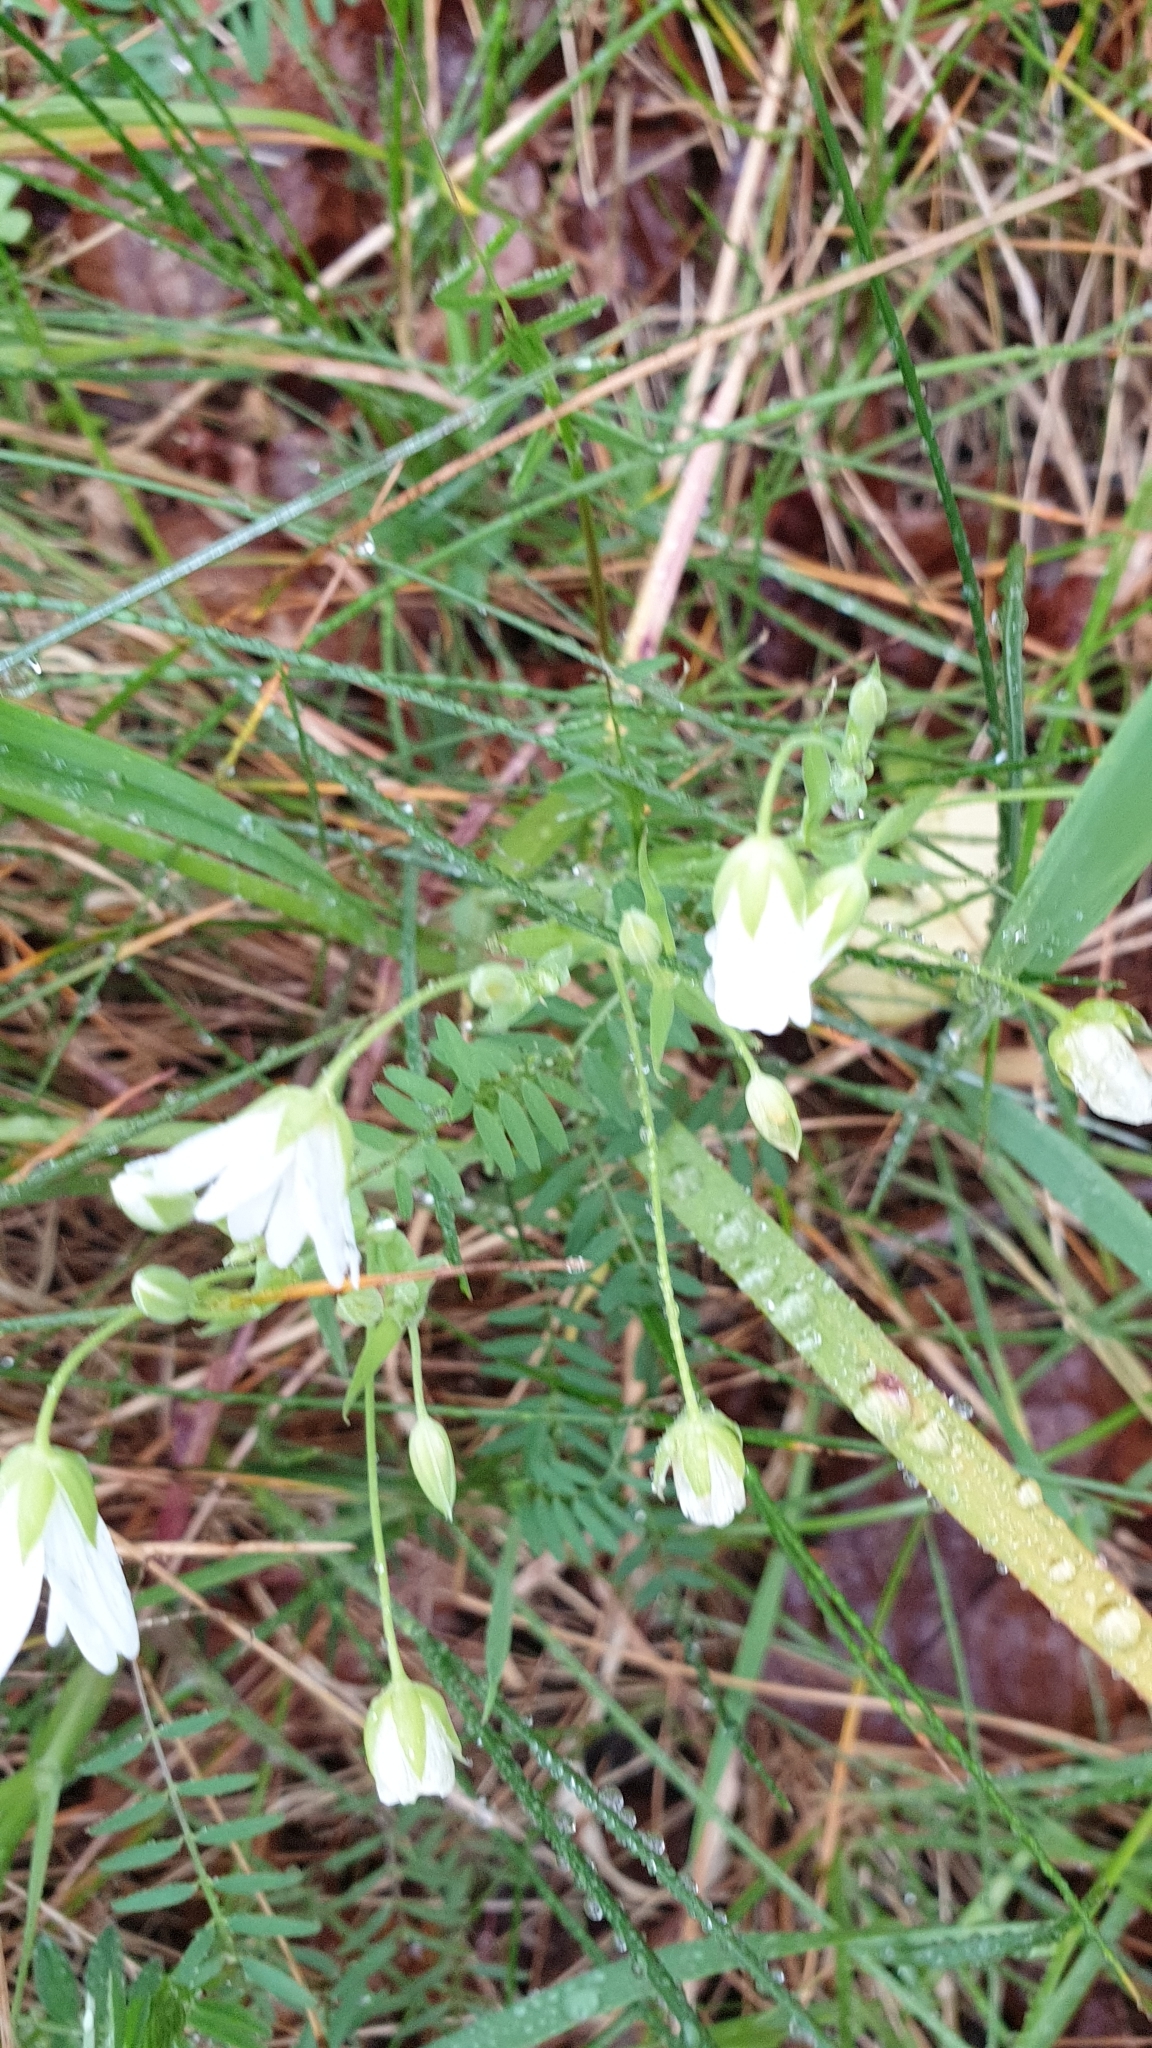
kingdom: Plantae
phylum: Tracheophyta
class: Magnoliopsida
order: Caryophyllales
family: Caryophyllaceae
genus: Rabelera
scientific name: Rabelera holostea
